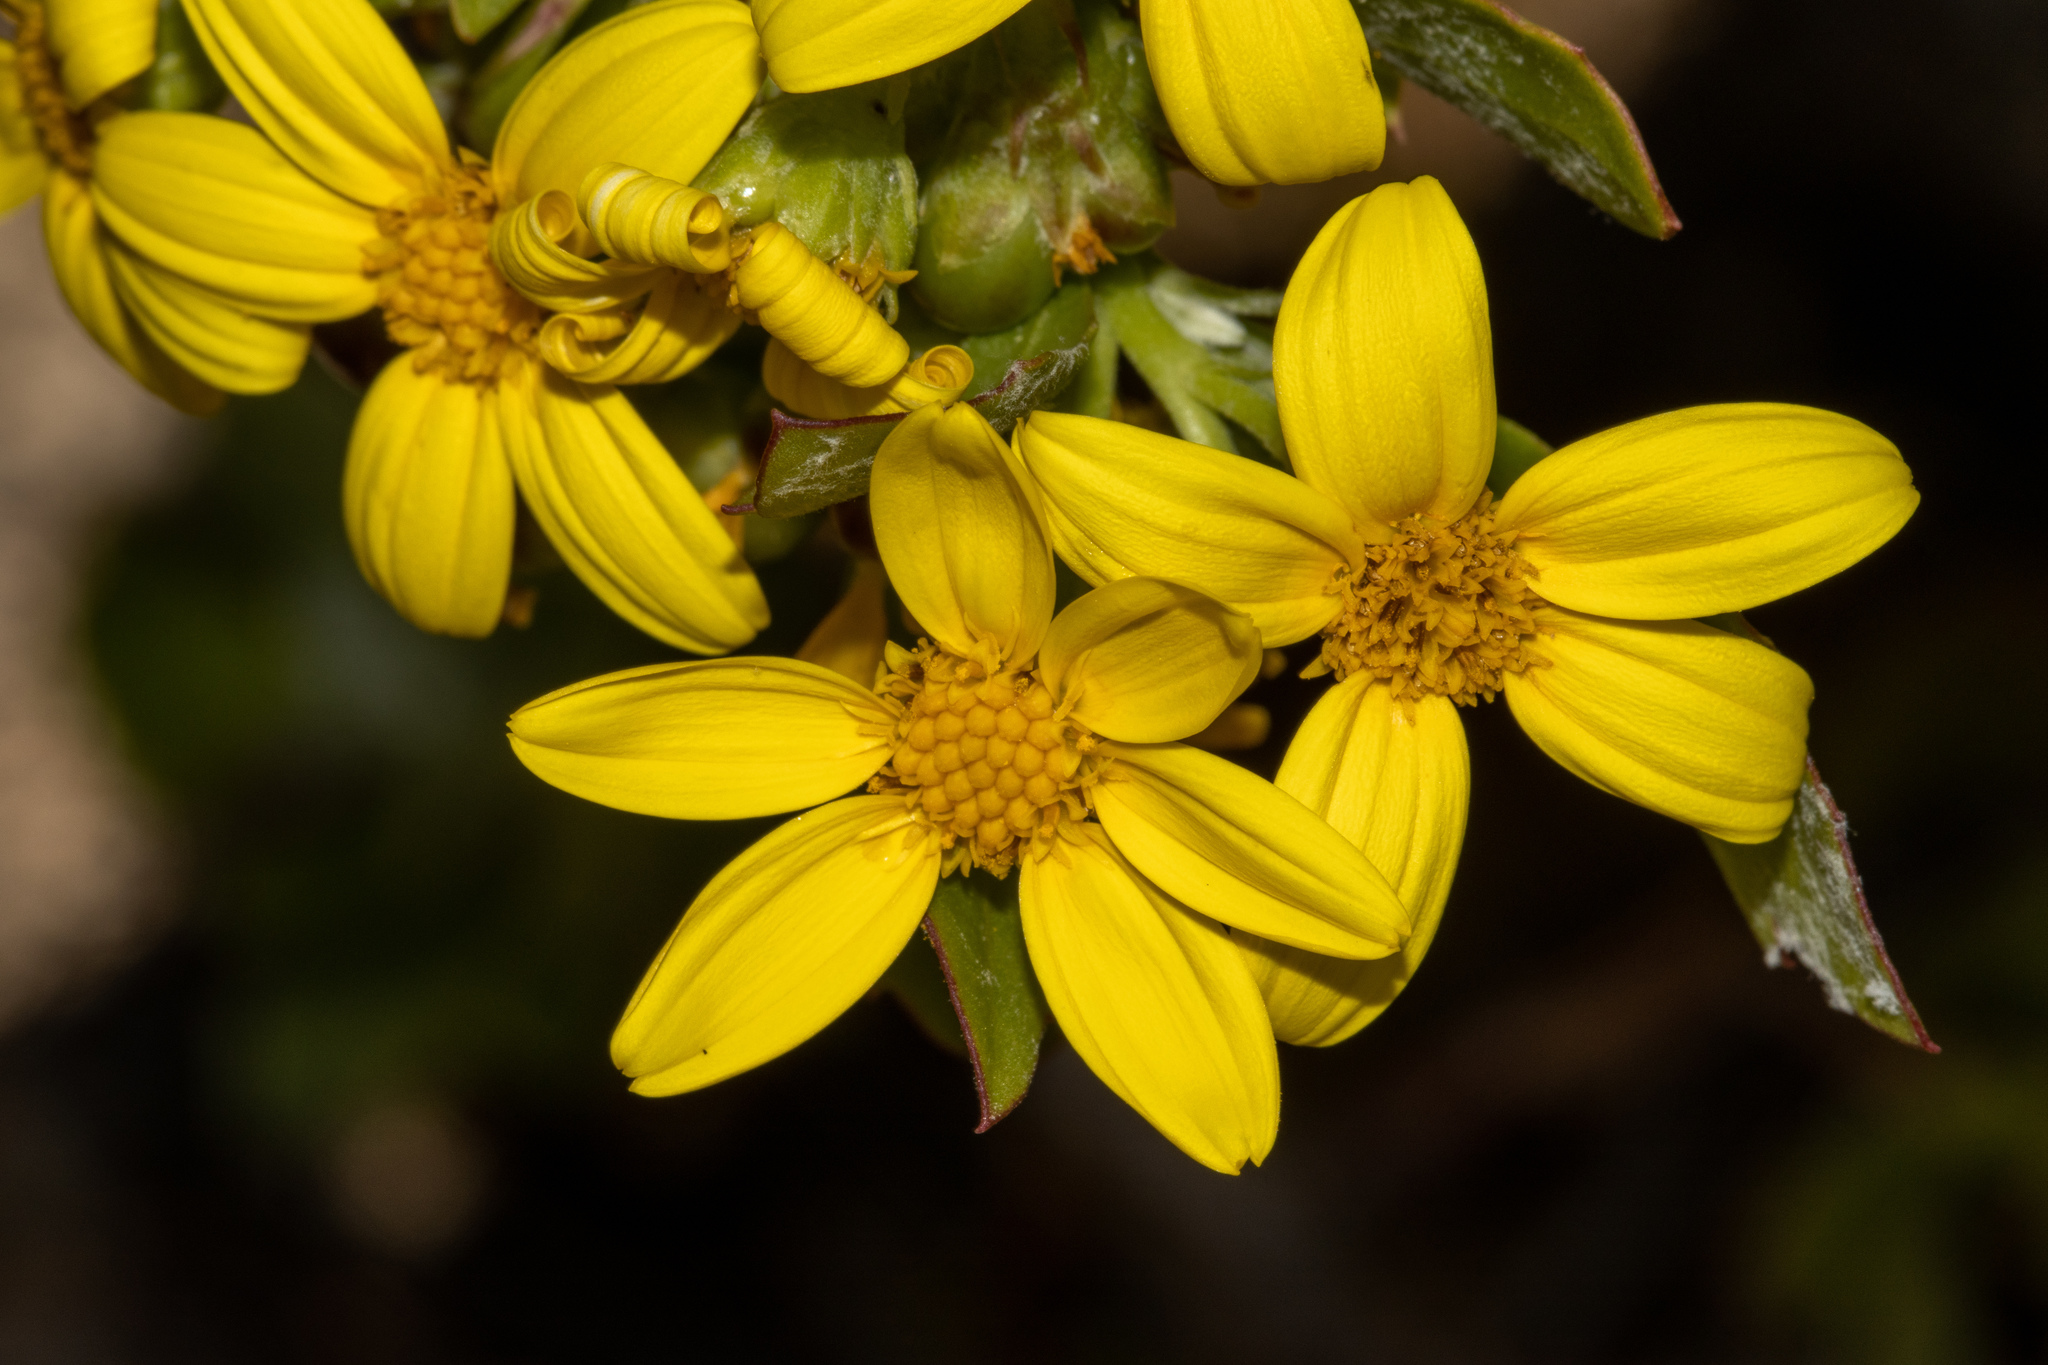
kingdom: Plantae
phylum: Tracheophyta
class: Magnoliopsida
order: Asterales
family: Asteraceae
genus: Osteospermum
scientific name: Osteospermum moniliferum
